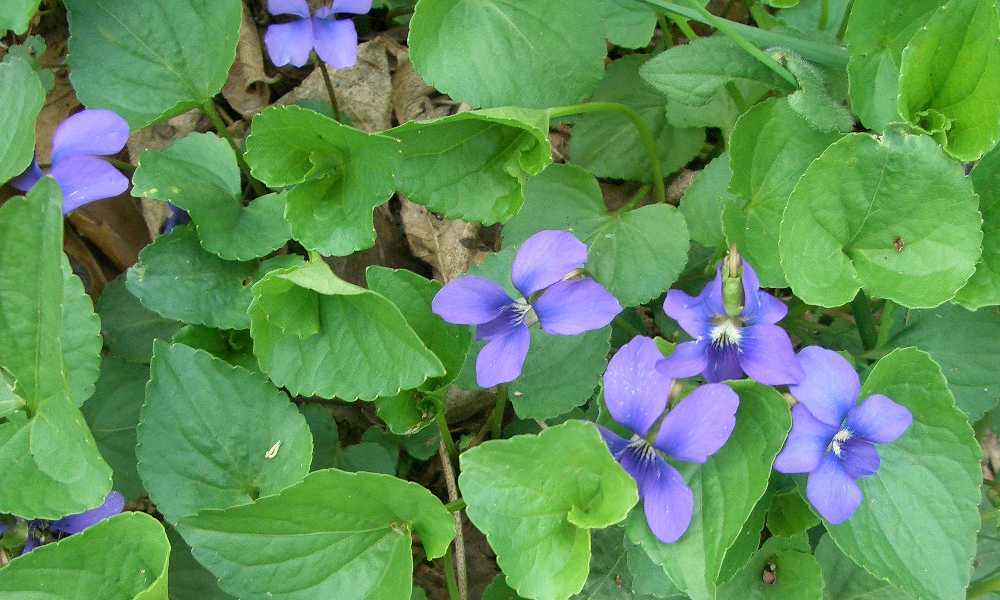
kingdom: Plantae
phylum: Tracheophyta
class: Magnoliopsida
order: Malpighiales
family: Violaceae
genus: Viola
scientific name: Viola sororia
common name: Dooryard violet
